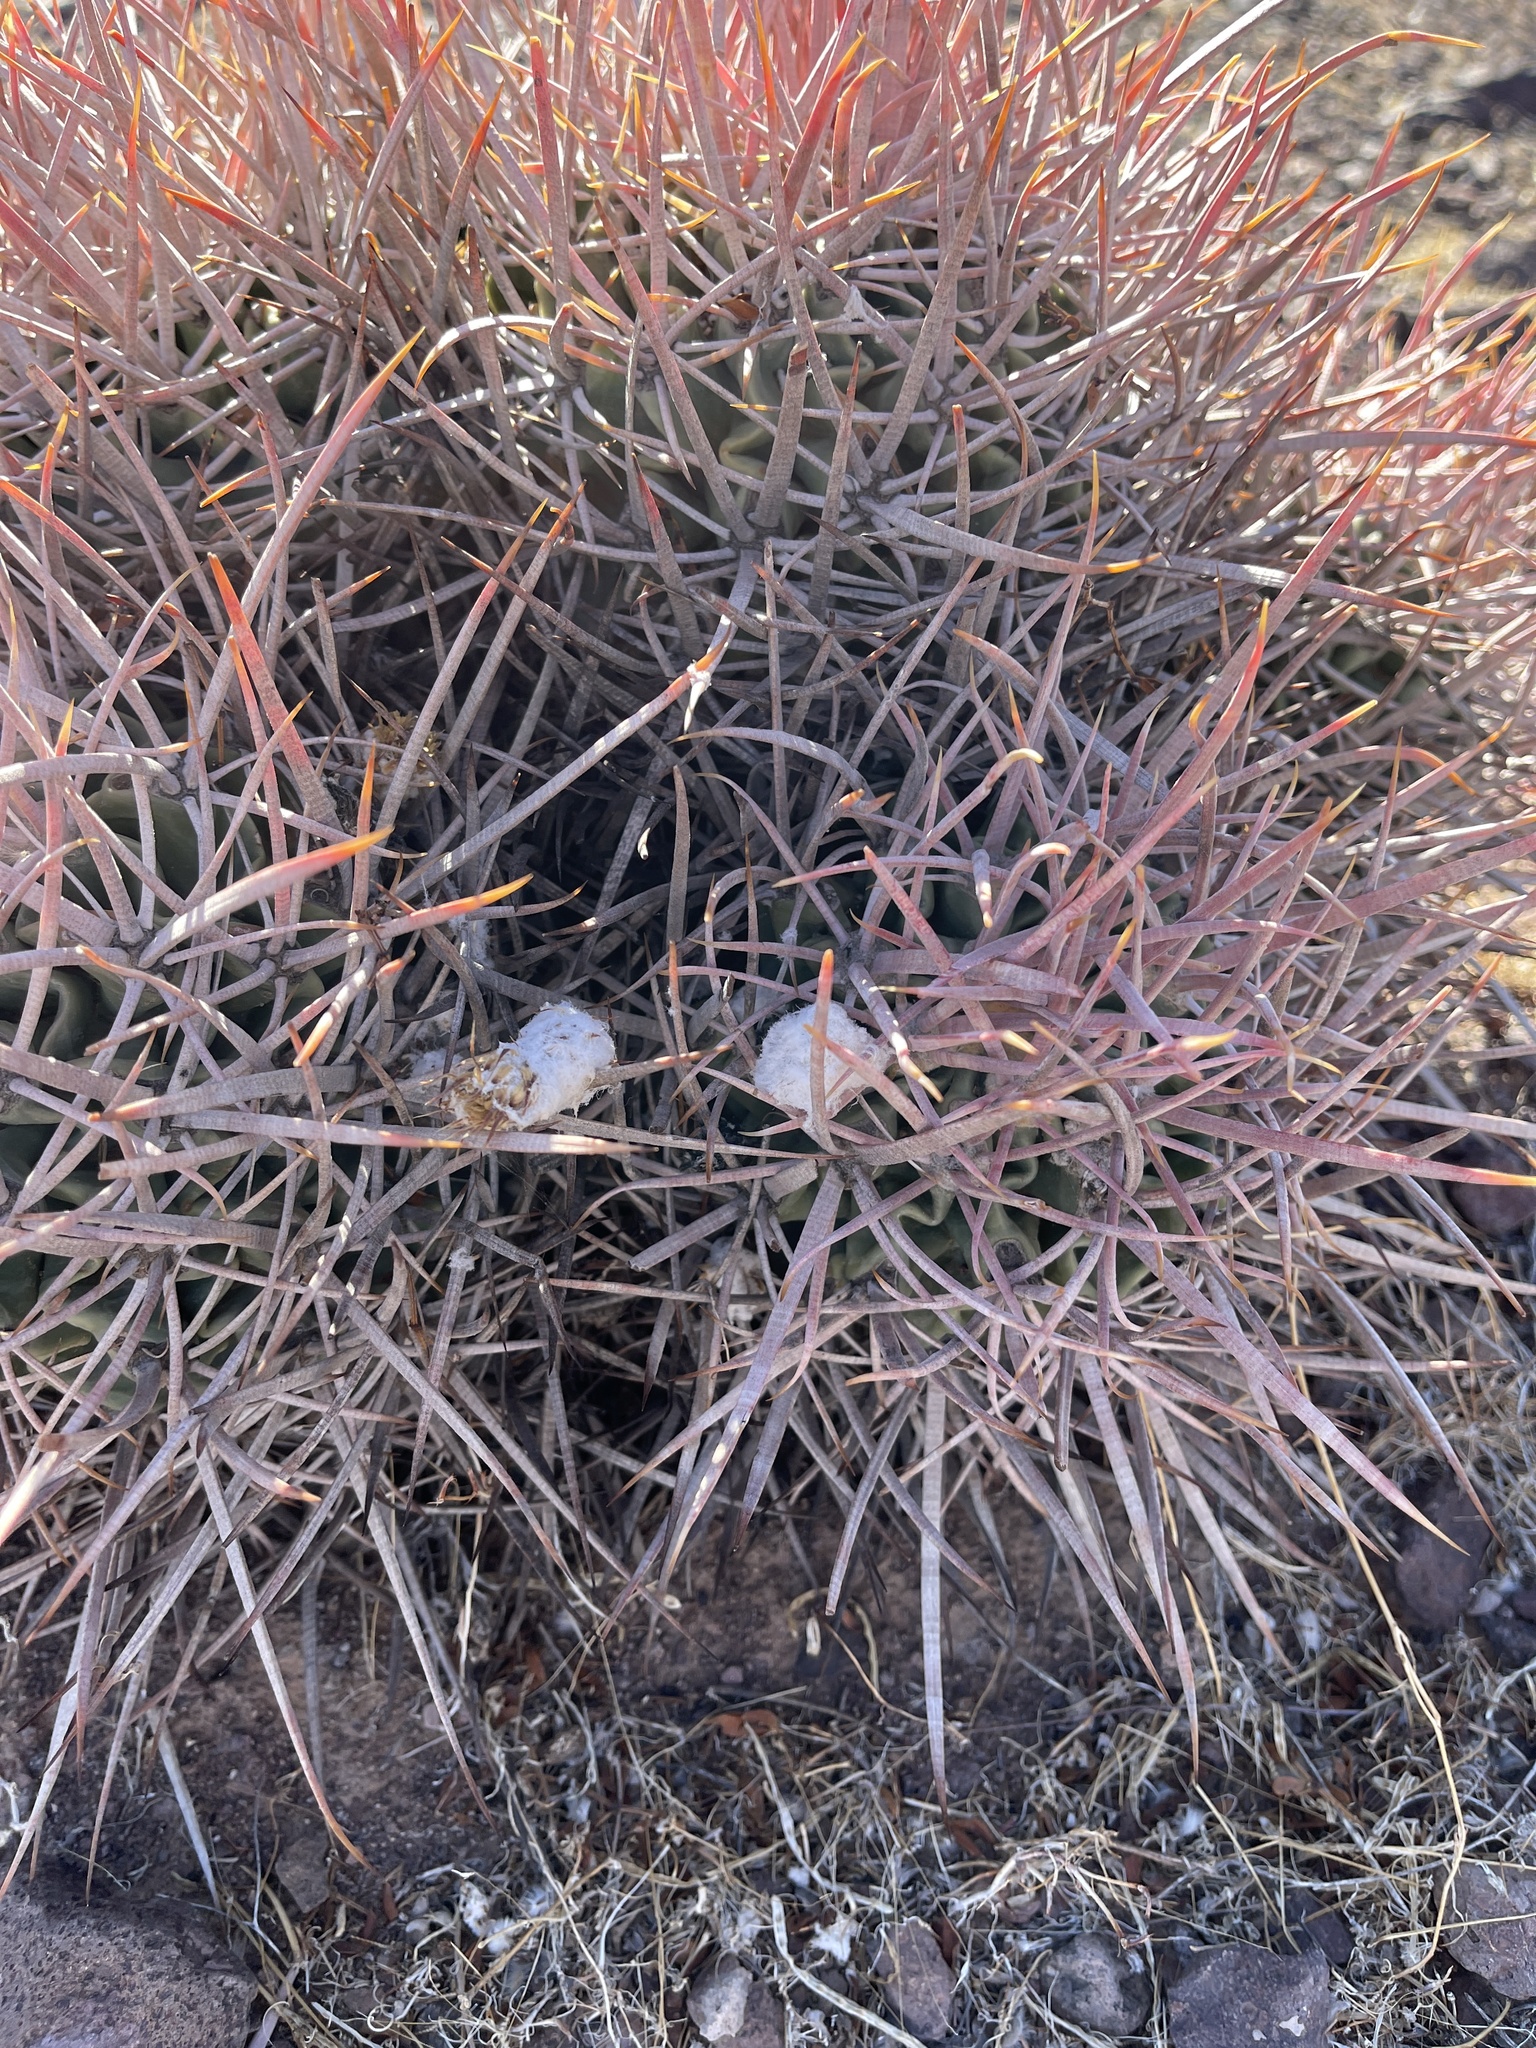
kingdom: Plantae
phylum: Tracheophyta
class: Magnoliopsida
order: Caryophyllales
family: Cactaceae
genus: Echinocactus
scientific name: Echinocactus polycephalus
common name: Cottontop cactus
